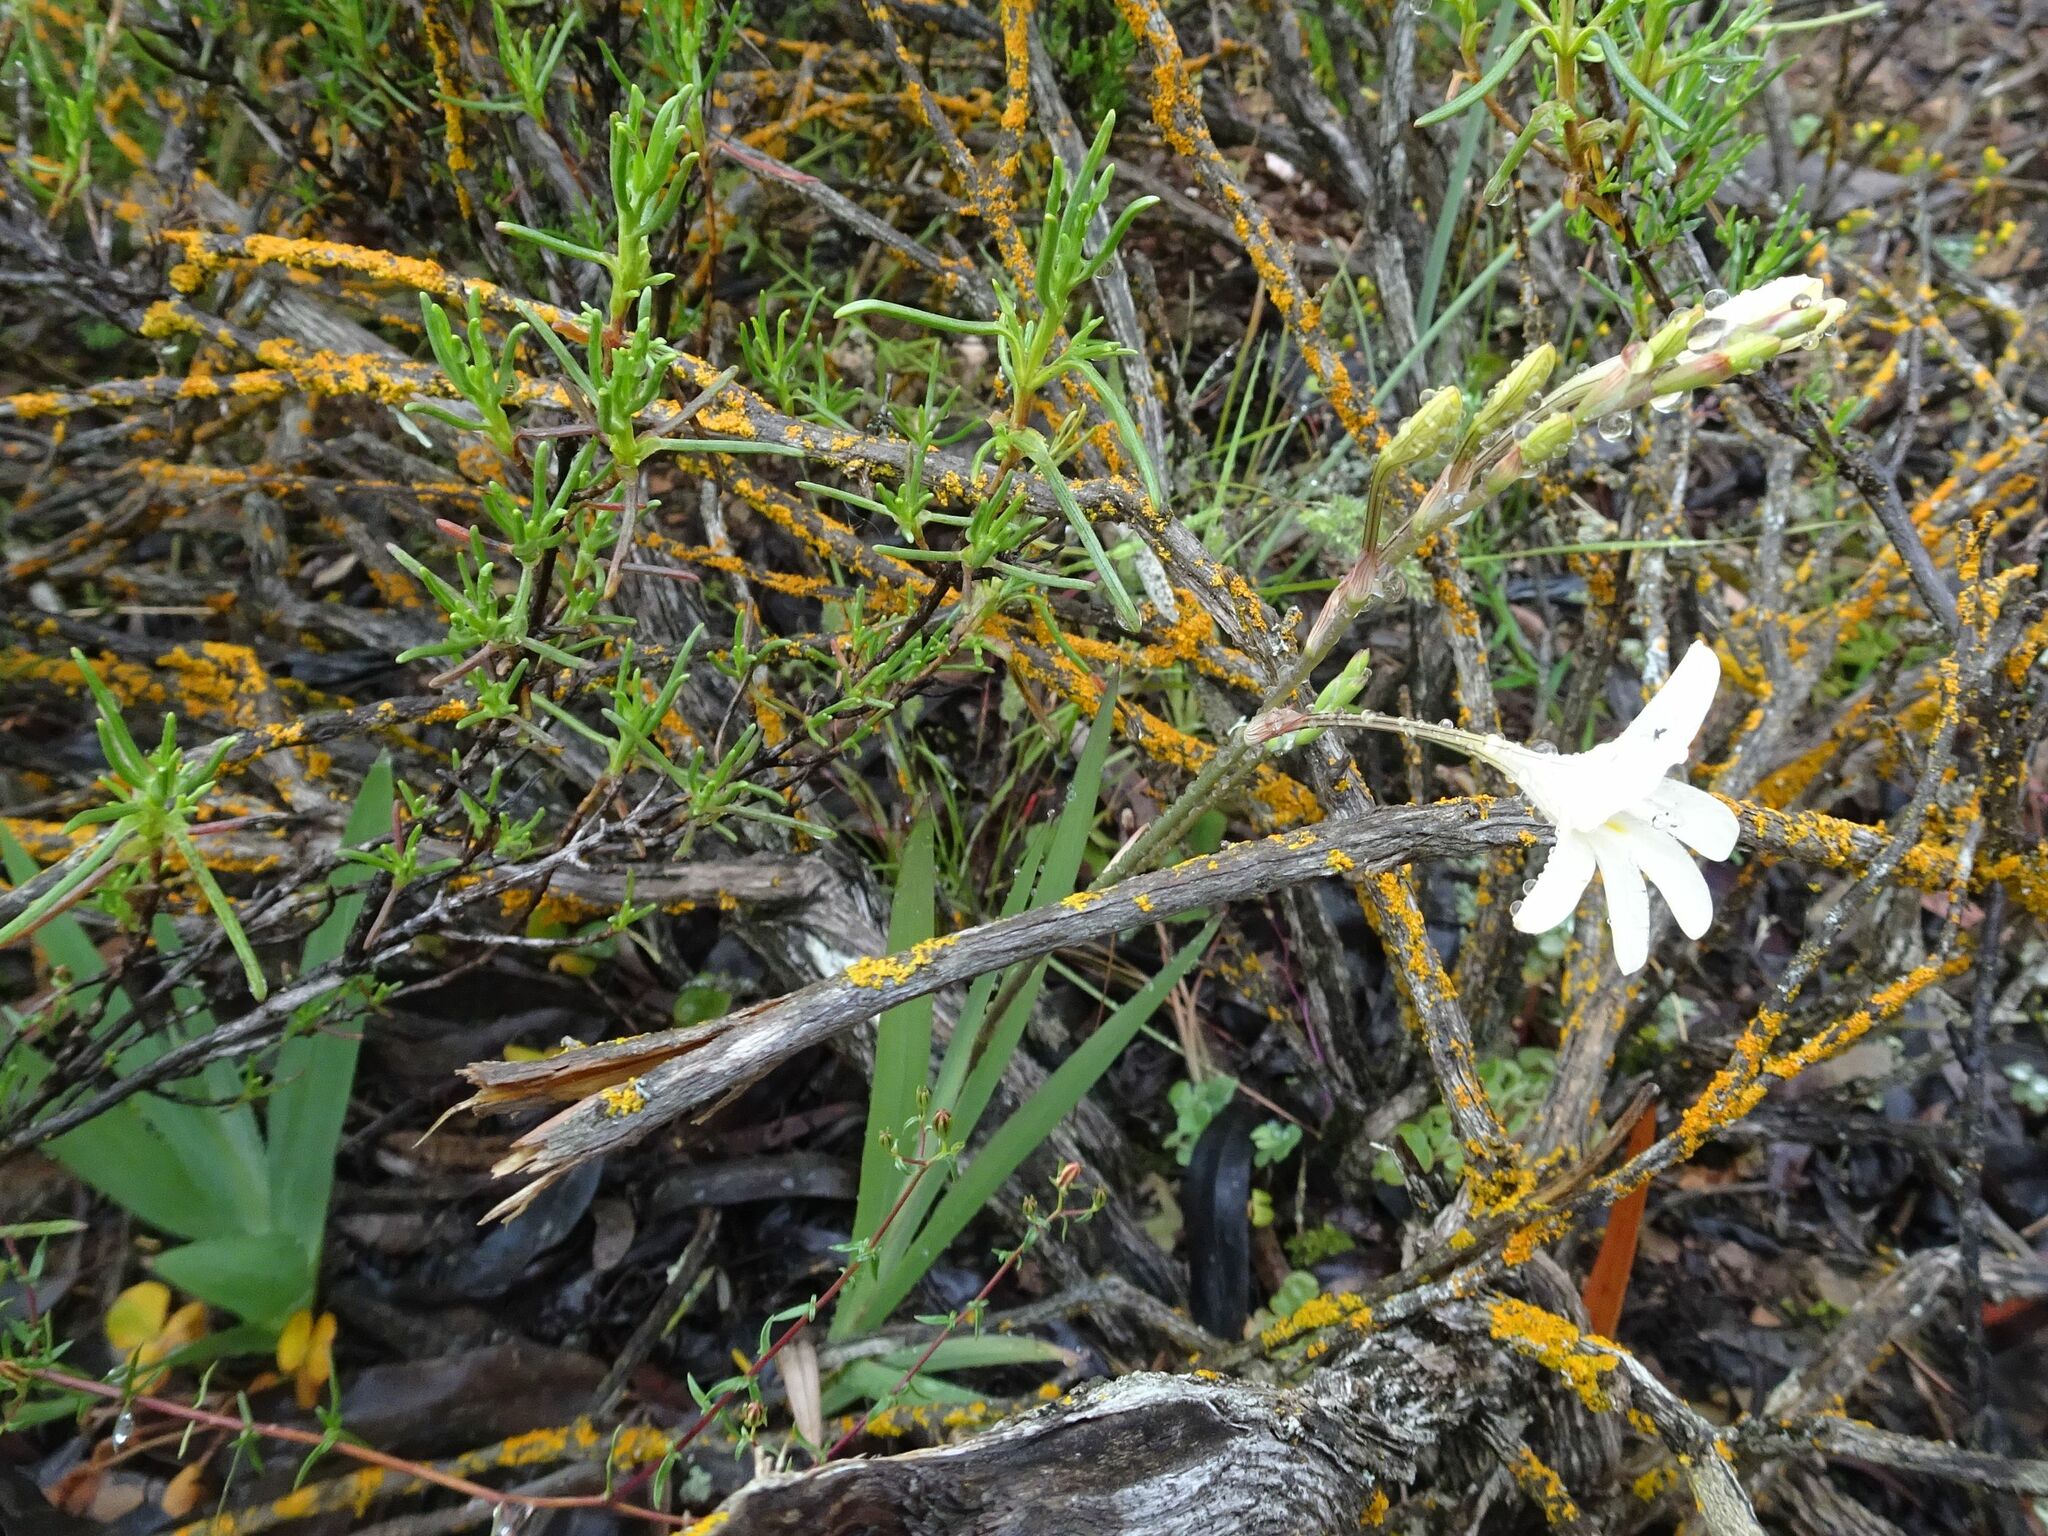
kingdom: Plantae
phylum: Tracheophyta
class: Liliopsida
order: Asparagales
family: Iridaceae
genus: Tritonia
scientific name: Tritonia pallida
